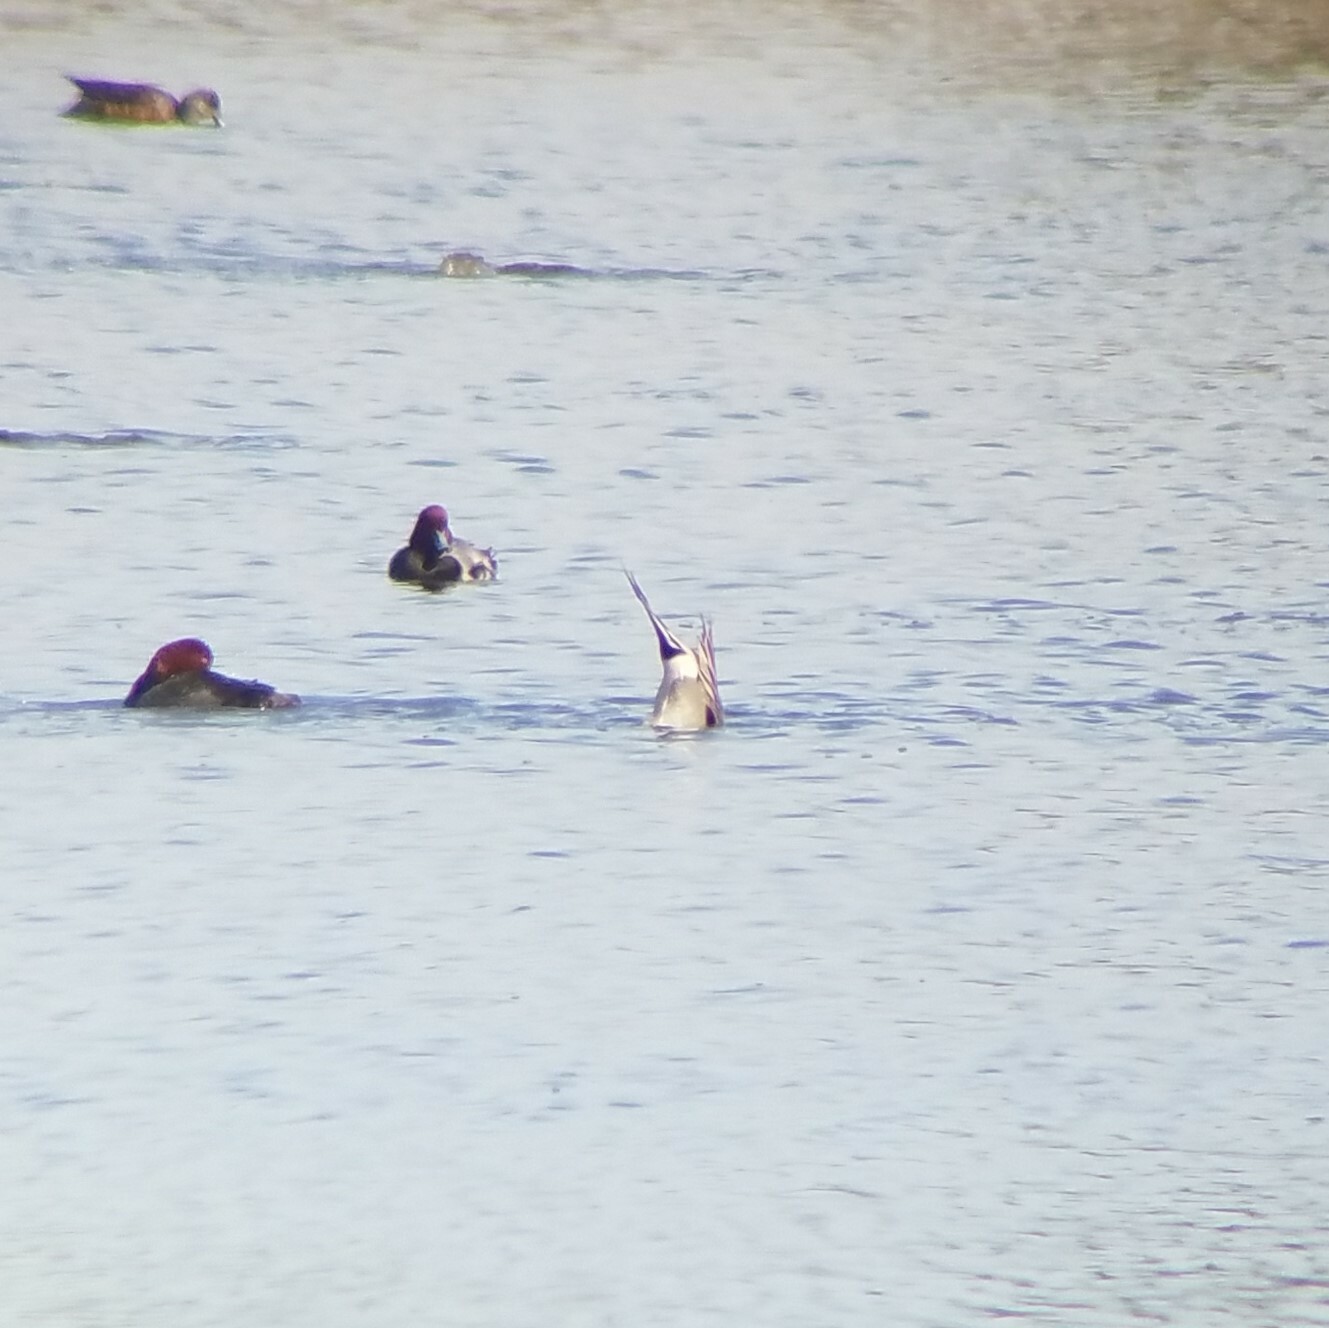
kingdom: Animalia
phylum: Chordata
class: Aves
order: Anseriformes
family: Anatidae
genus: Anas
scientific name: Anas acuta
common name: Northern pintail
